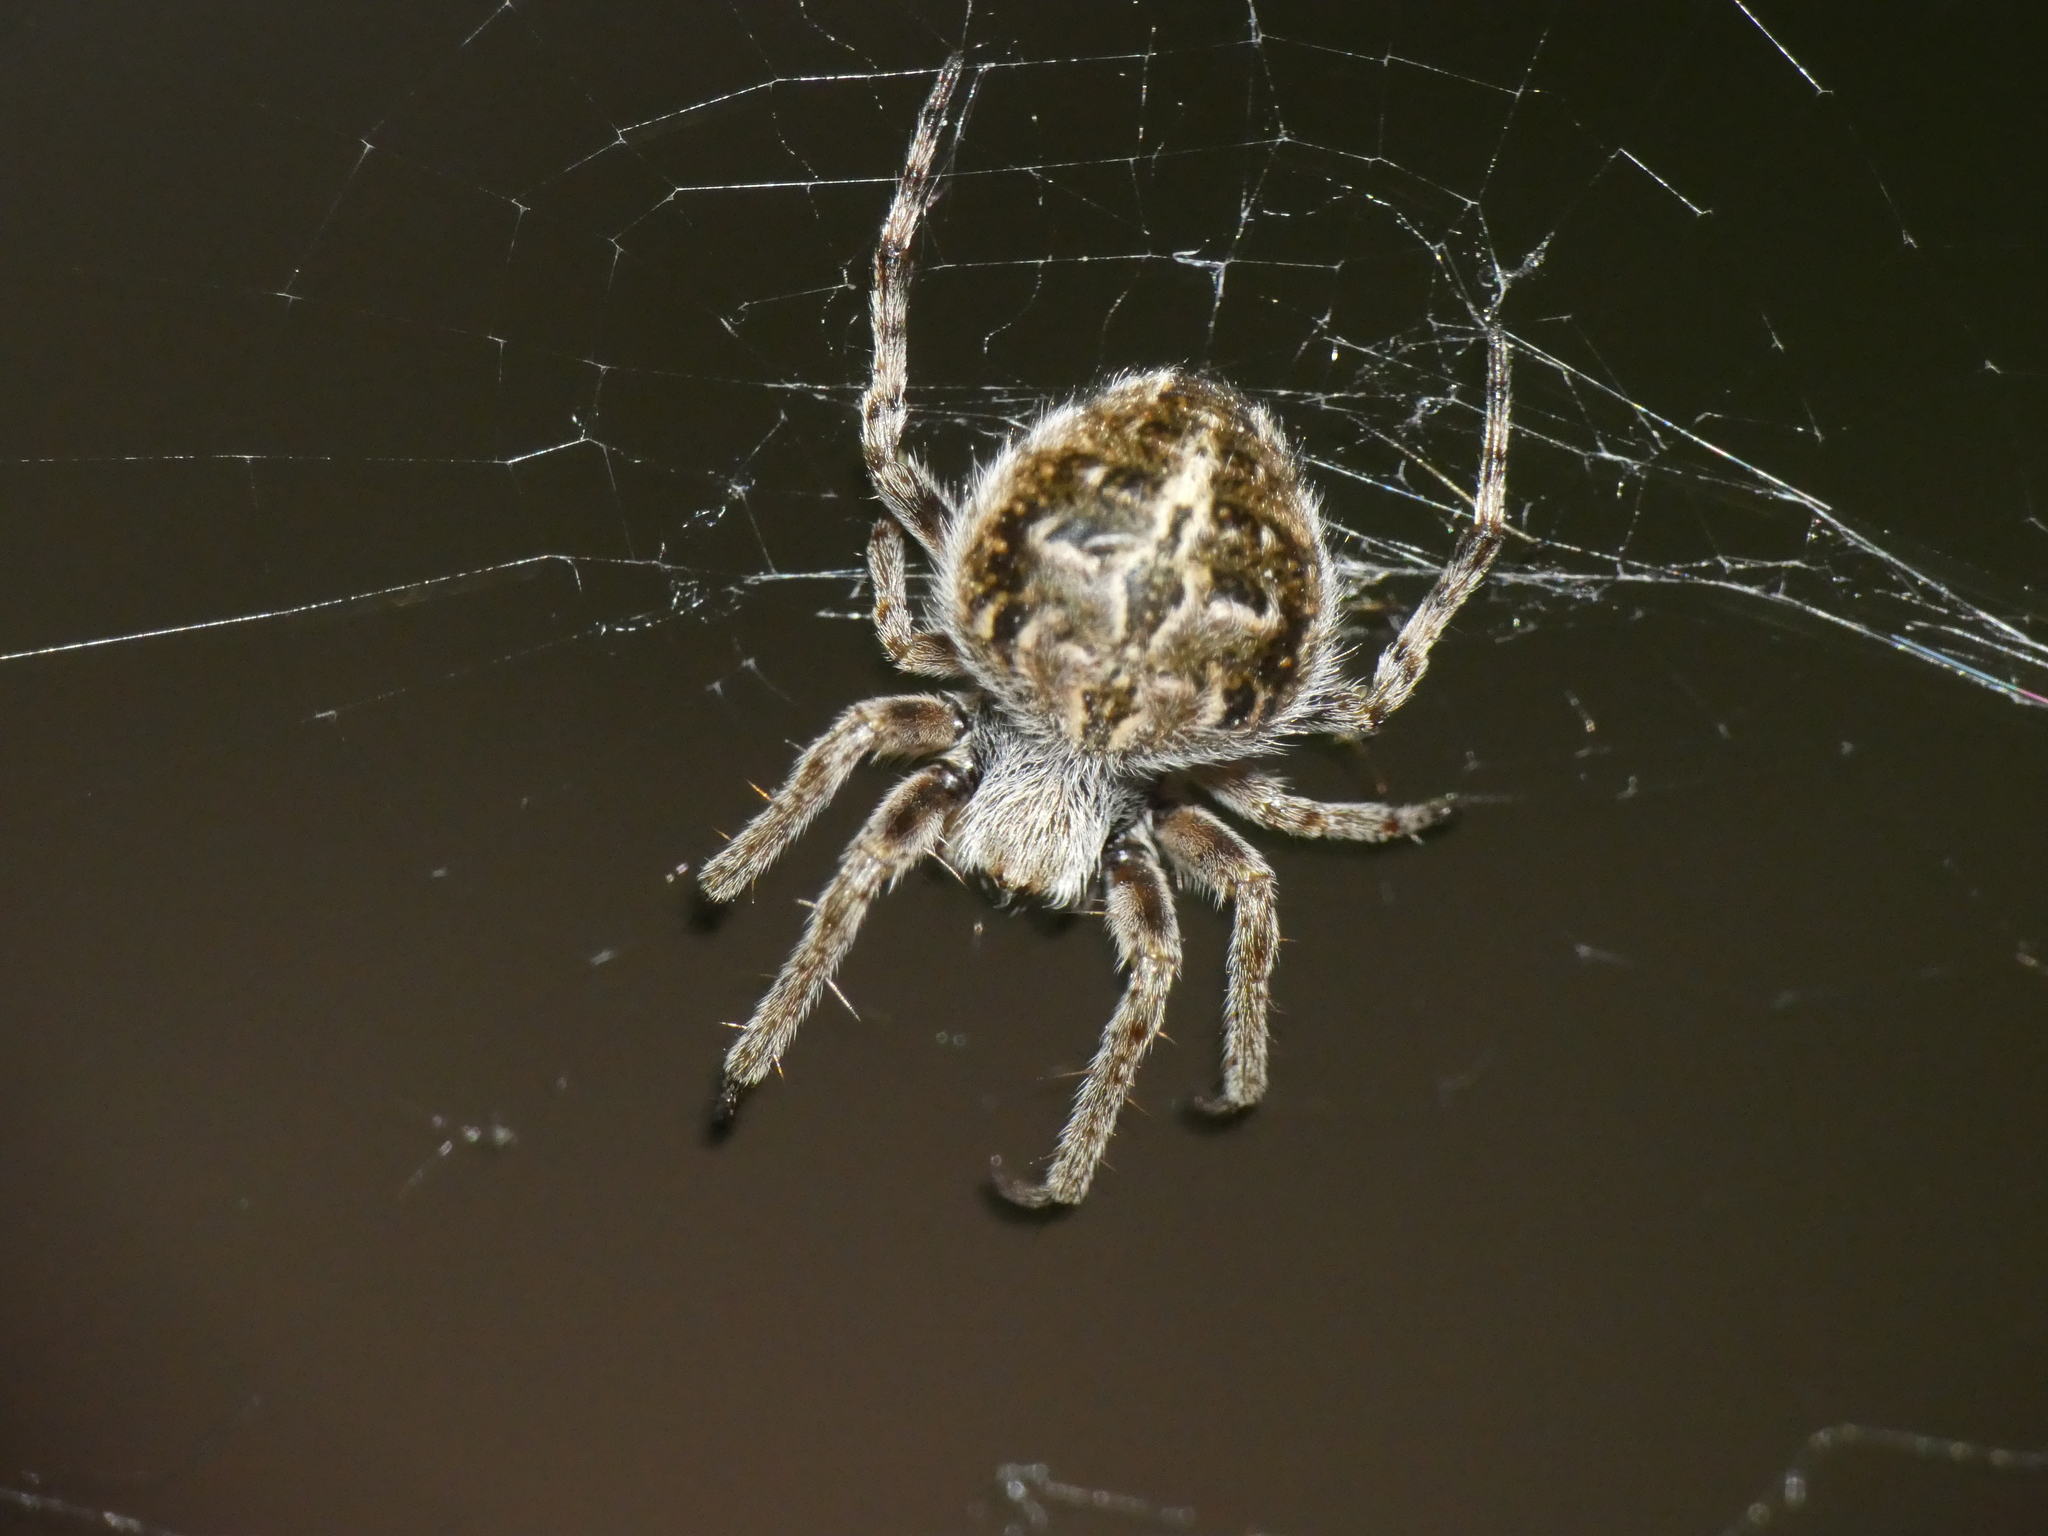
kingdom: Animalia
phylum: Arthropoda
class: Arachnida
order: Araneae
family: Araneidae
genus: Agalenatea
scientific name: Agalenatea redii
